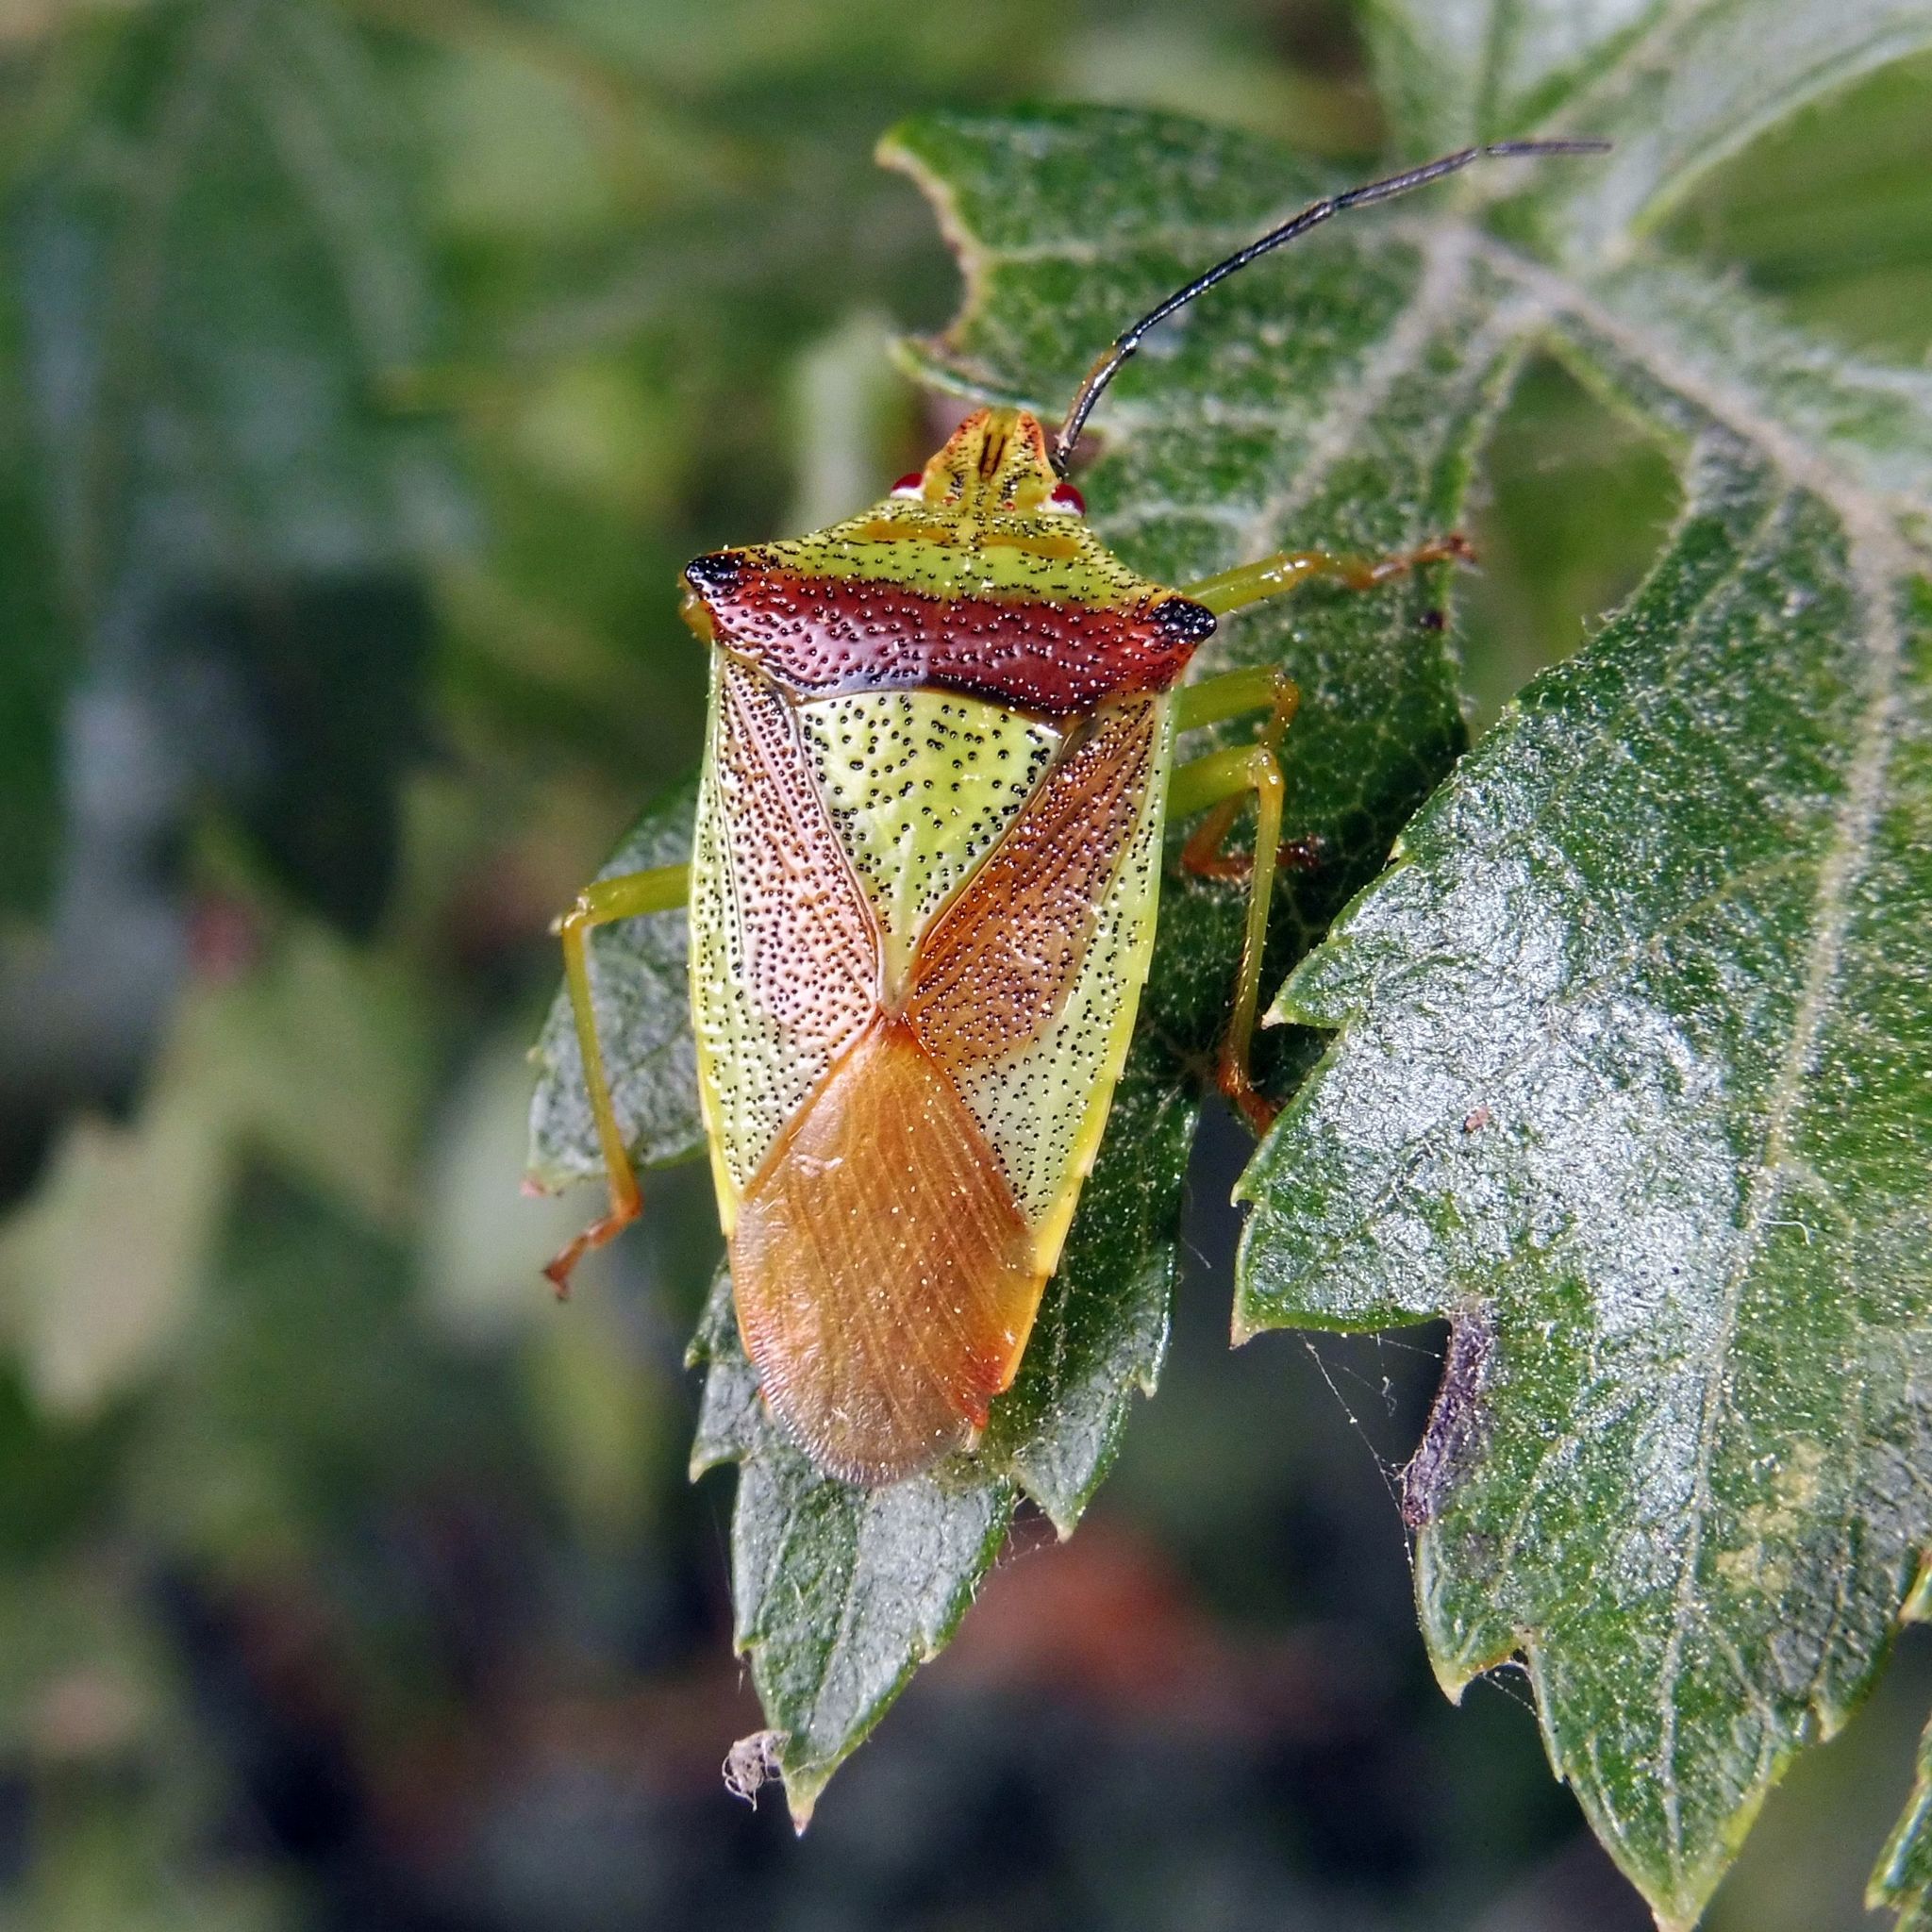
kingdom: Animalia
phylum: Arthropoda
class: Insecta
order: Hemiptera
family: Acanthosomatidae
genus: Acanthosoma
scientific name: Acanthosoma haemorrhoidale
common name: Hawthorn shieldbug
